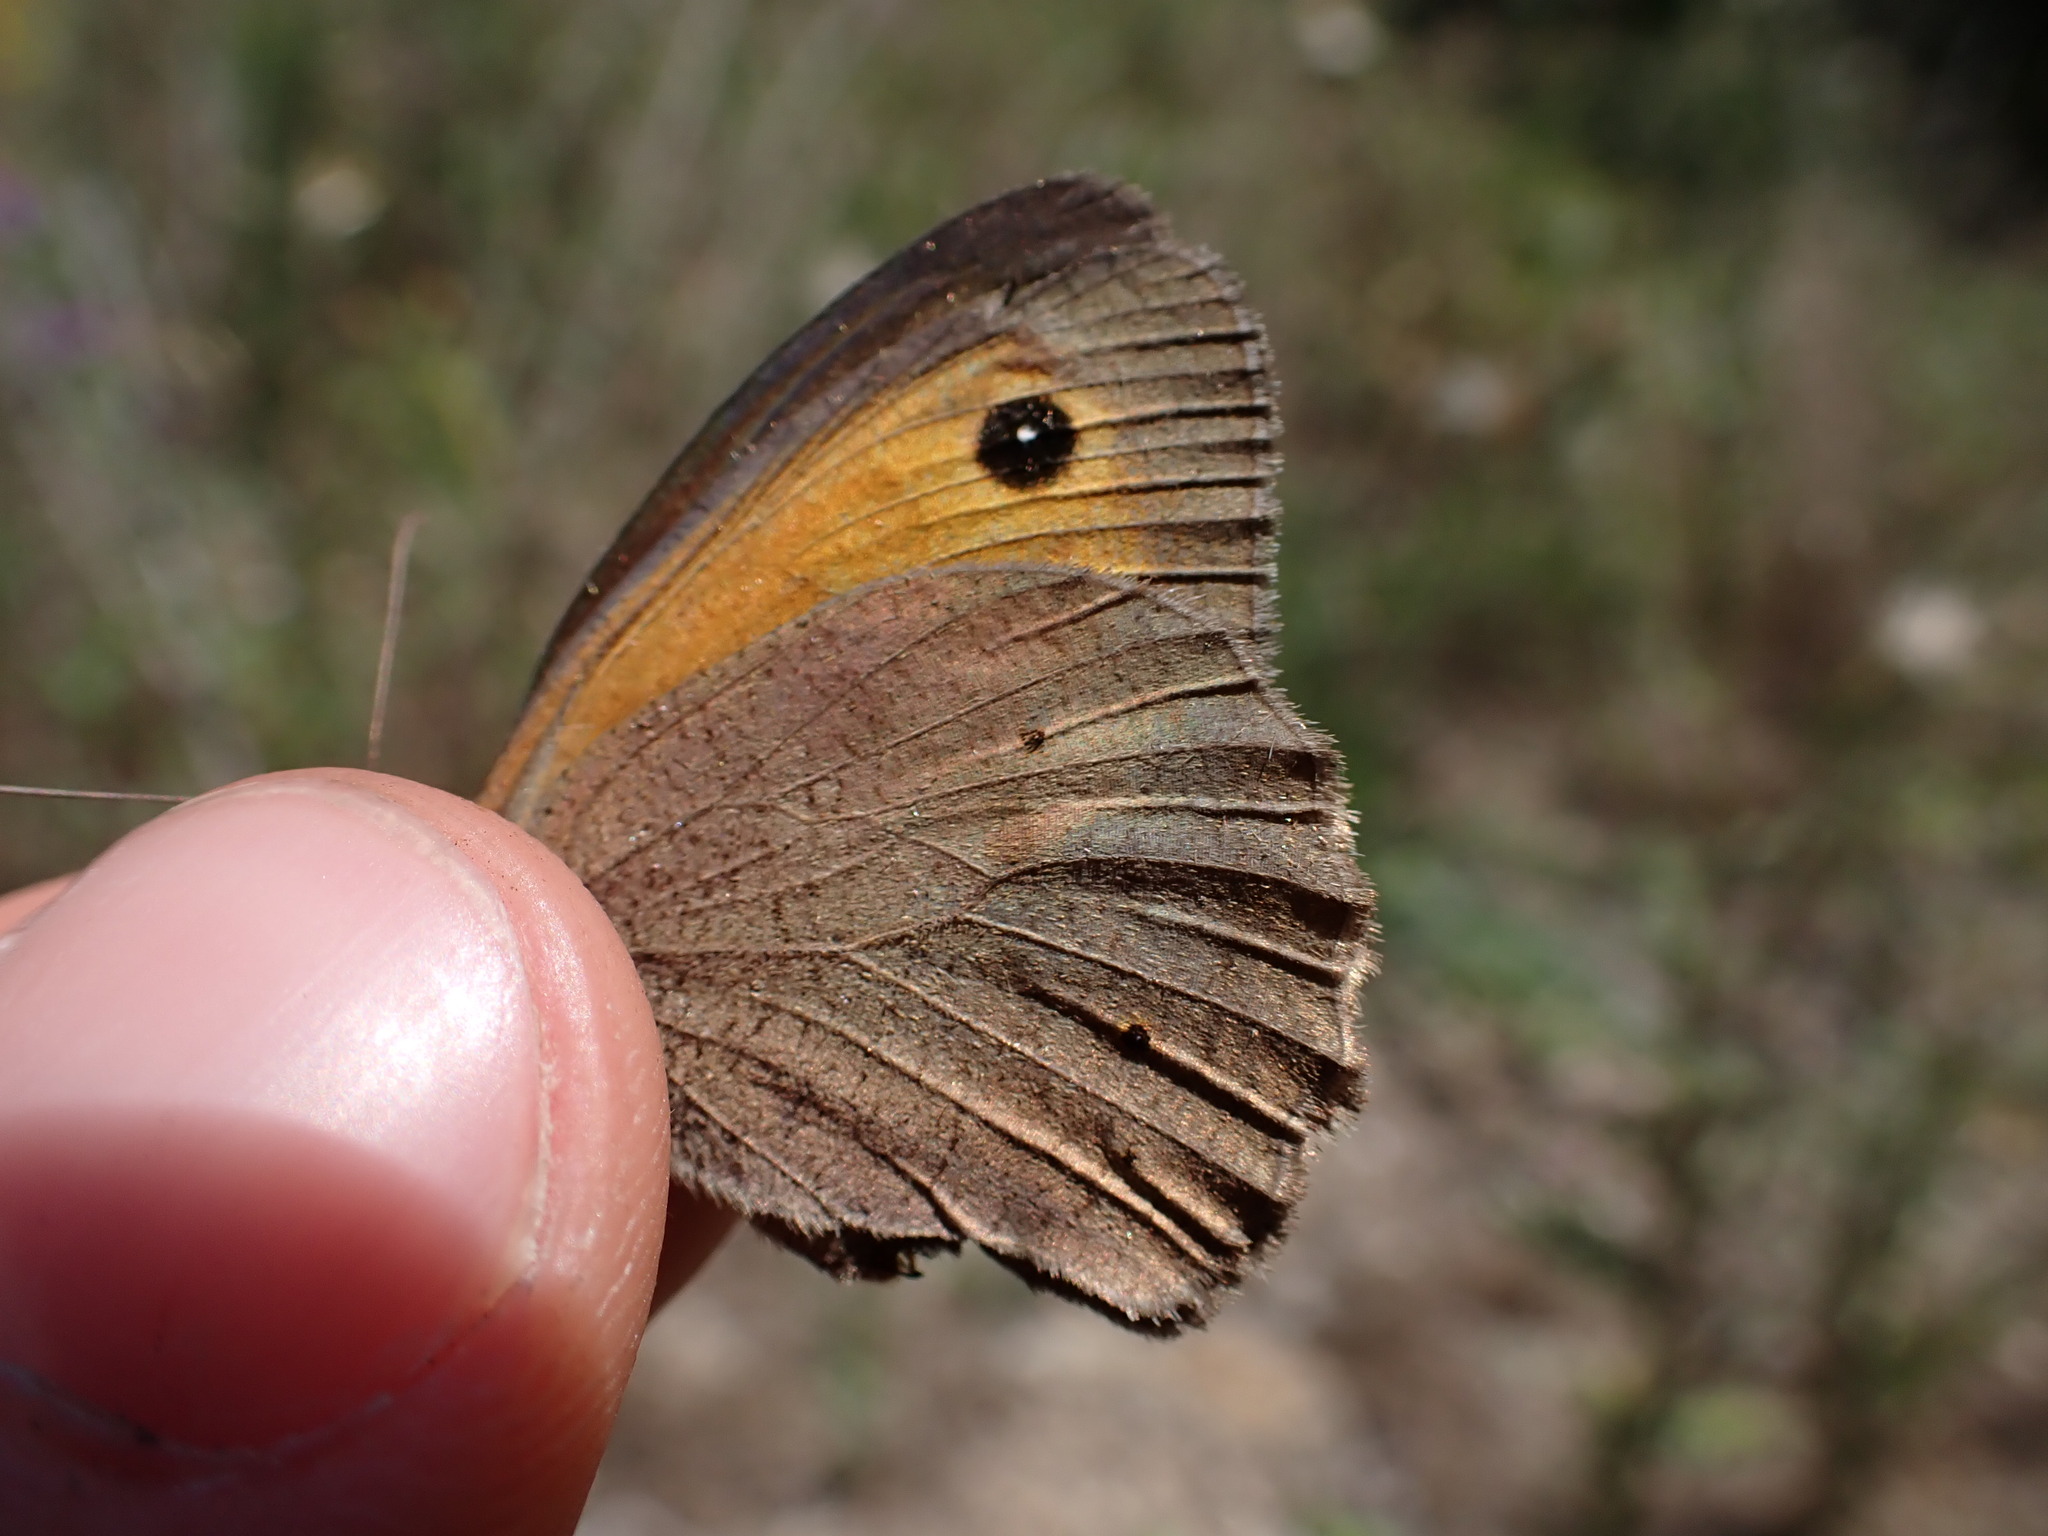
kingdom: Animalia
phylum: Arthropoda
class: Insecta
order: Lepidoptera
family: Nymphalidae
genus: Maniola
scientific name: Maniola jurtina
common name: Meadow brown
